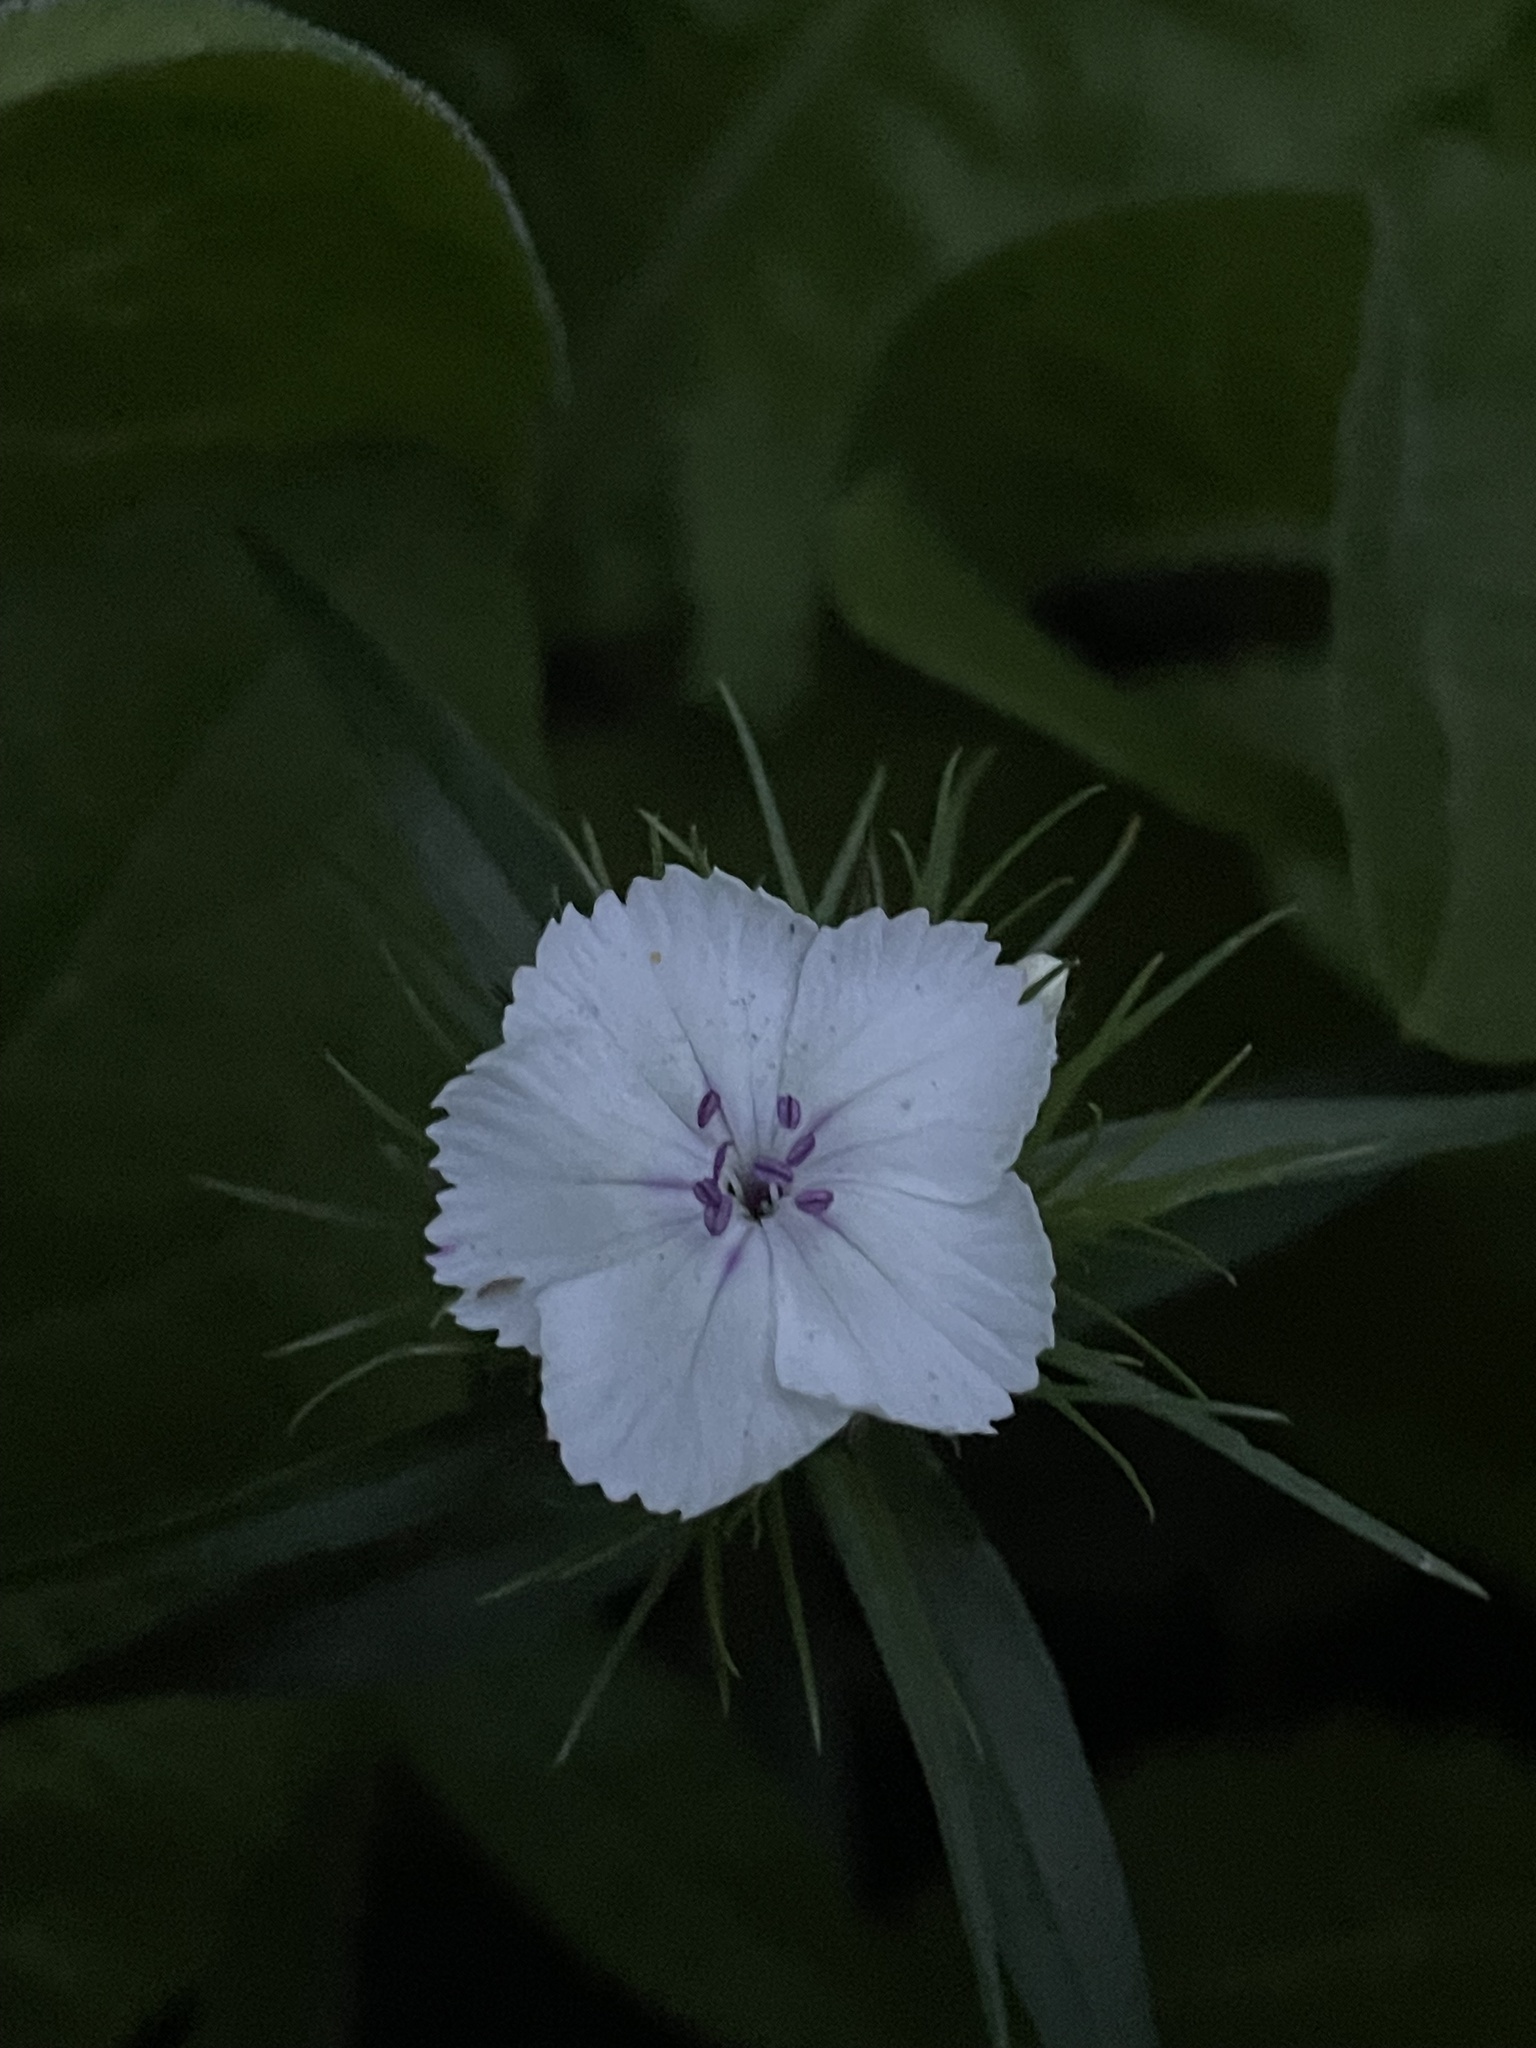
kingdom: Plantae
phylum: Tracheophyta
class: Magnoliopsida
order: Caryophyllales
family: Caryophyllaceae
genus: Dianthus
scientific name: Dianthus barbatus
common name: Sweet-william
